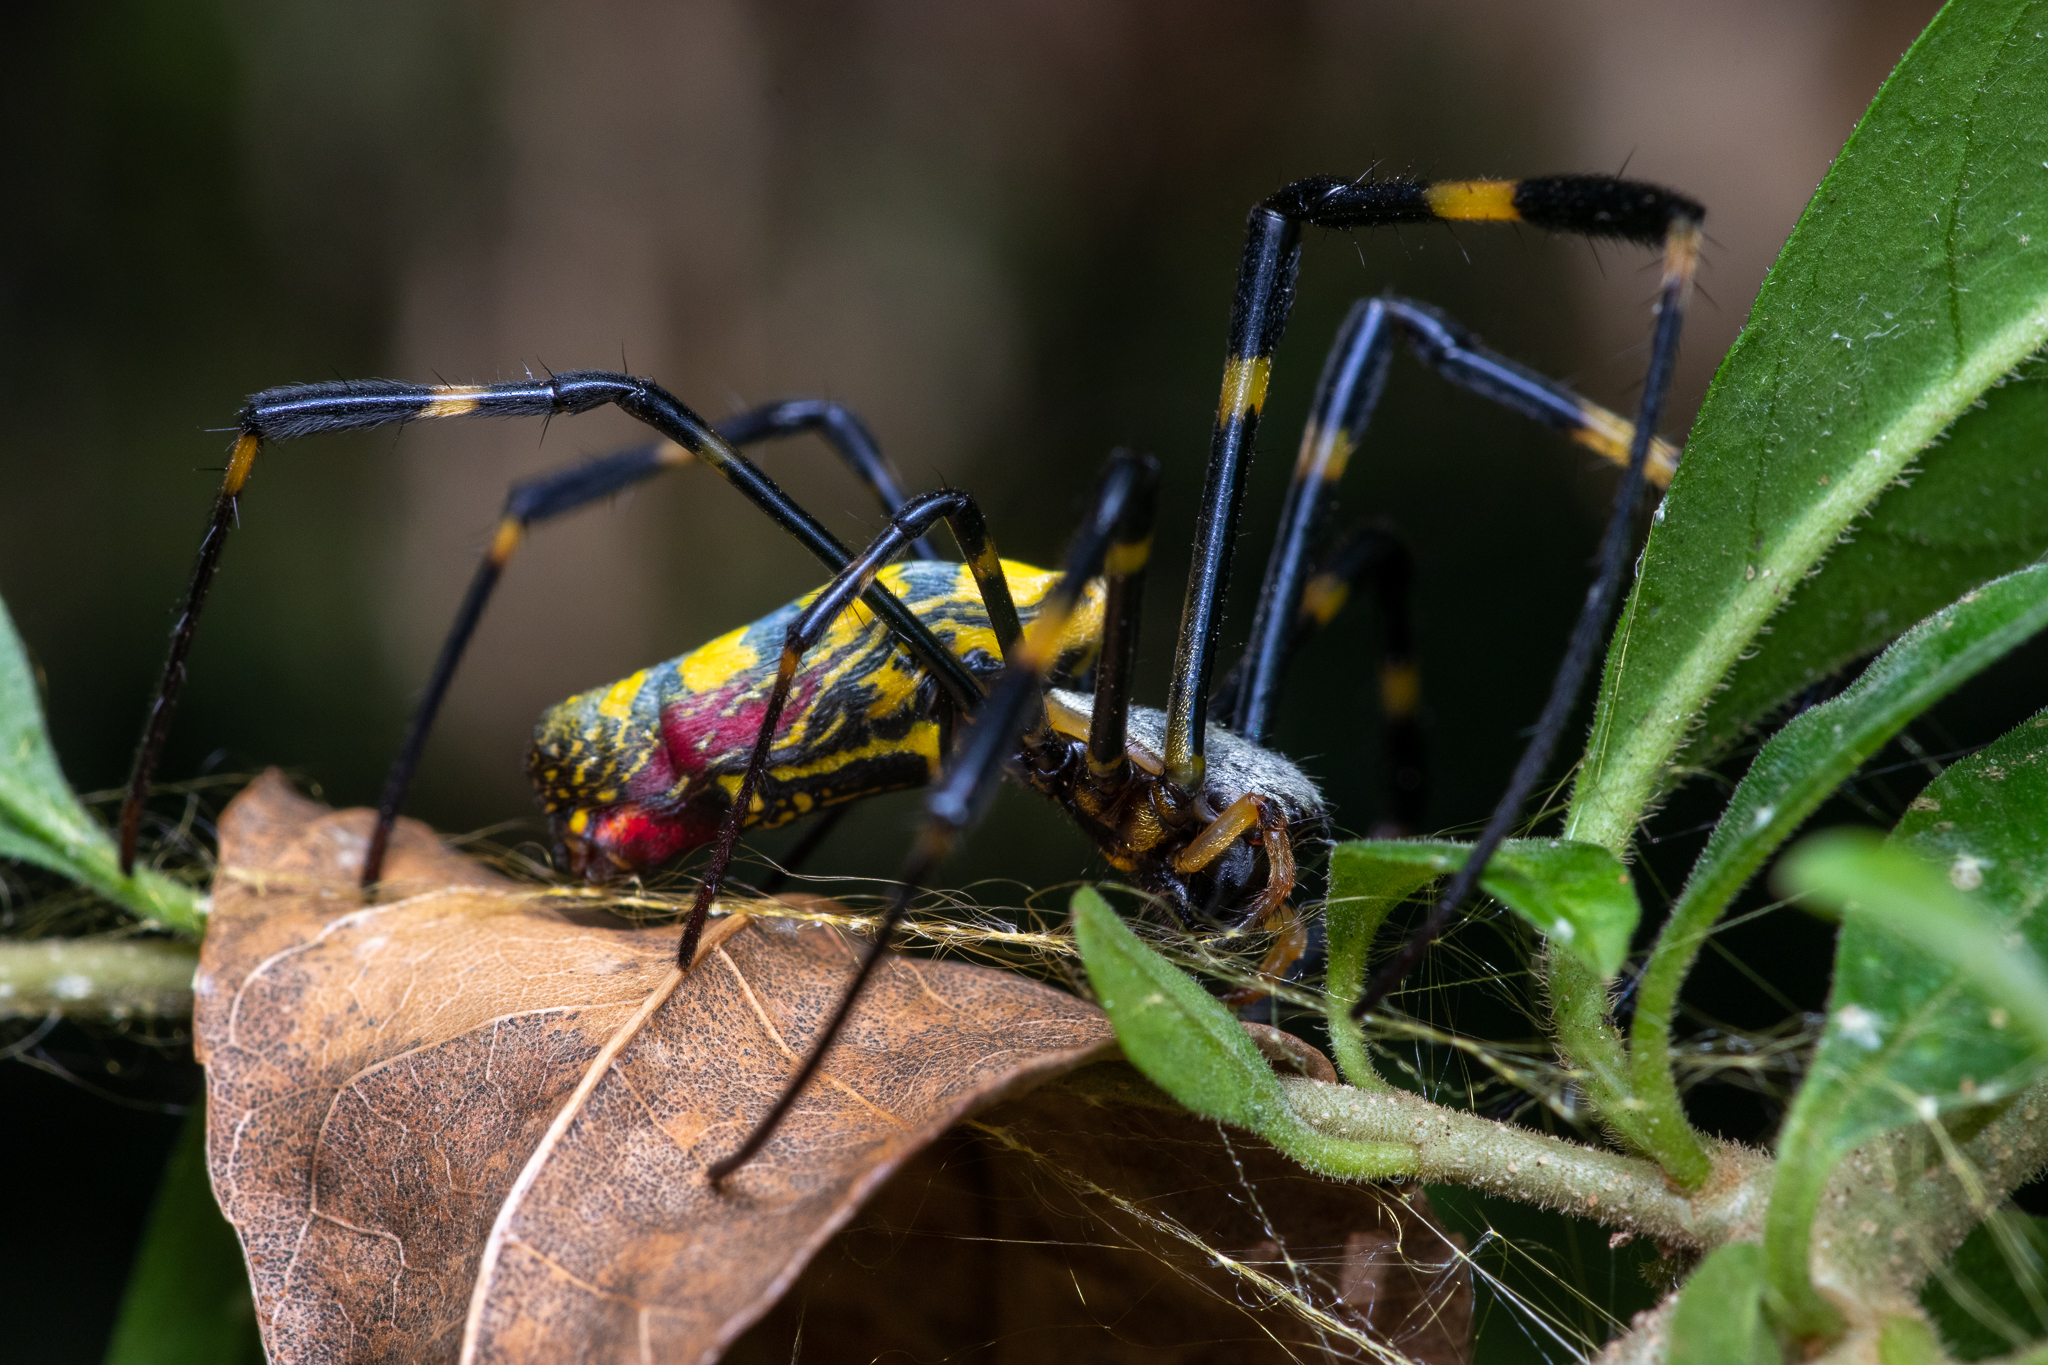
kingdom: Animalia
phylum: Arthropoda
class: Arachnida
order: Araneae
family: Araneidae
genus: Trichonephila
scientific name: Trichonephila clavata
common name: Jorō spider
